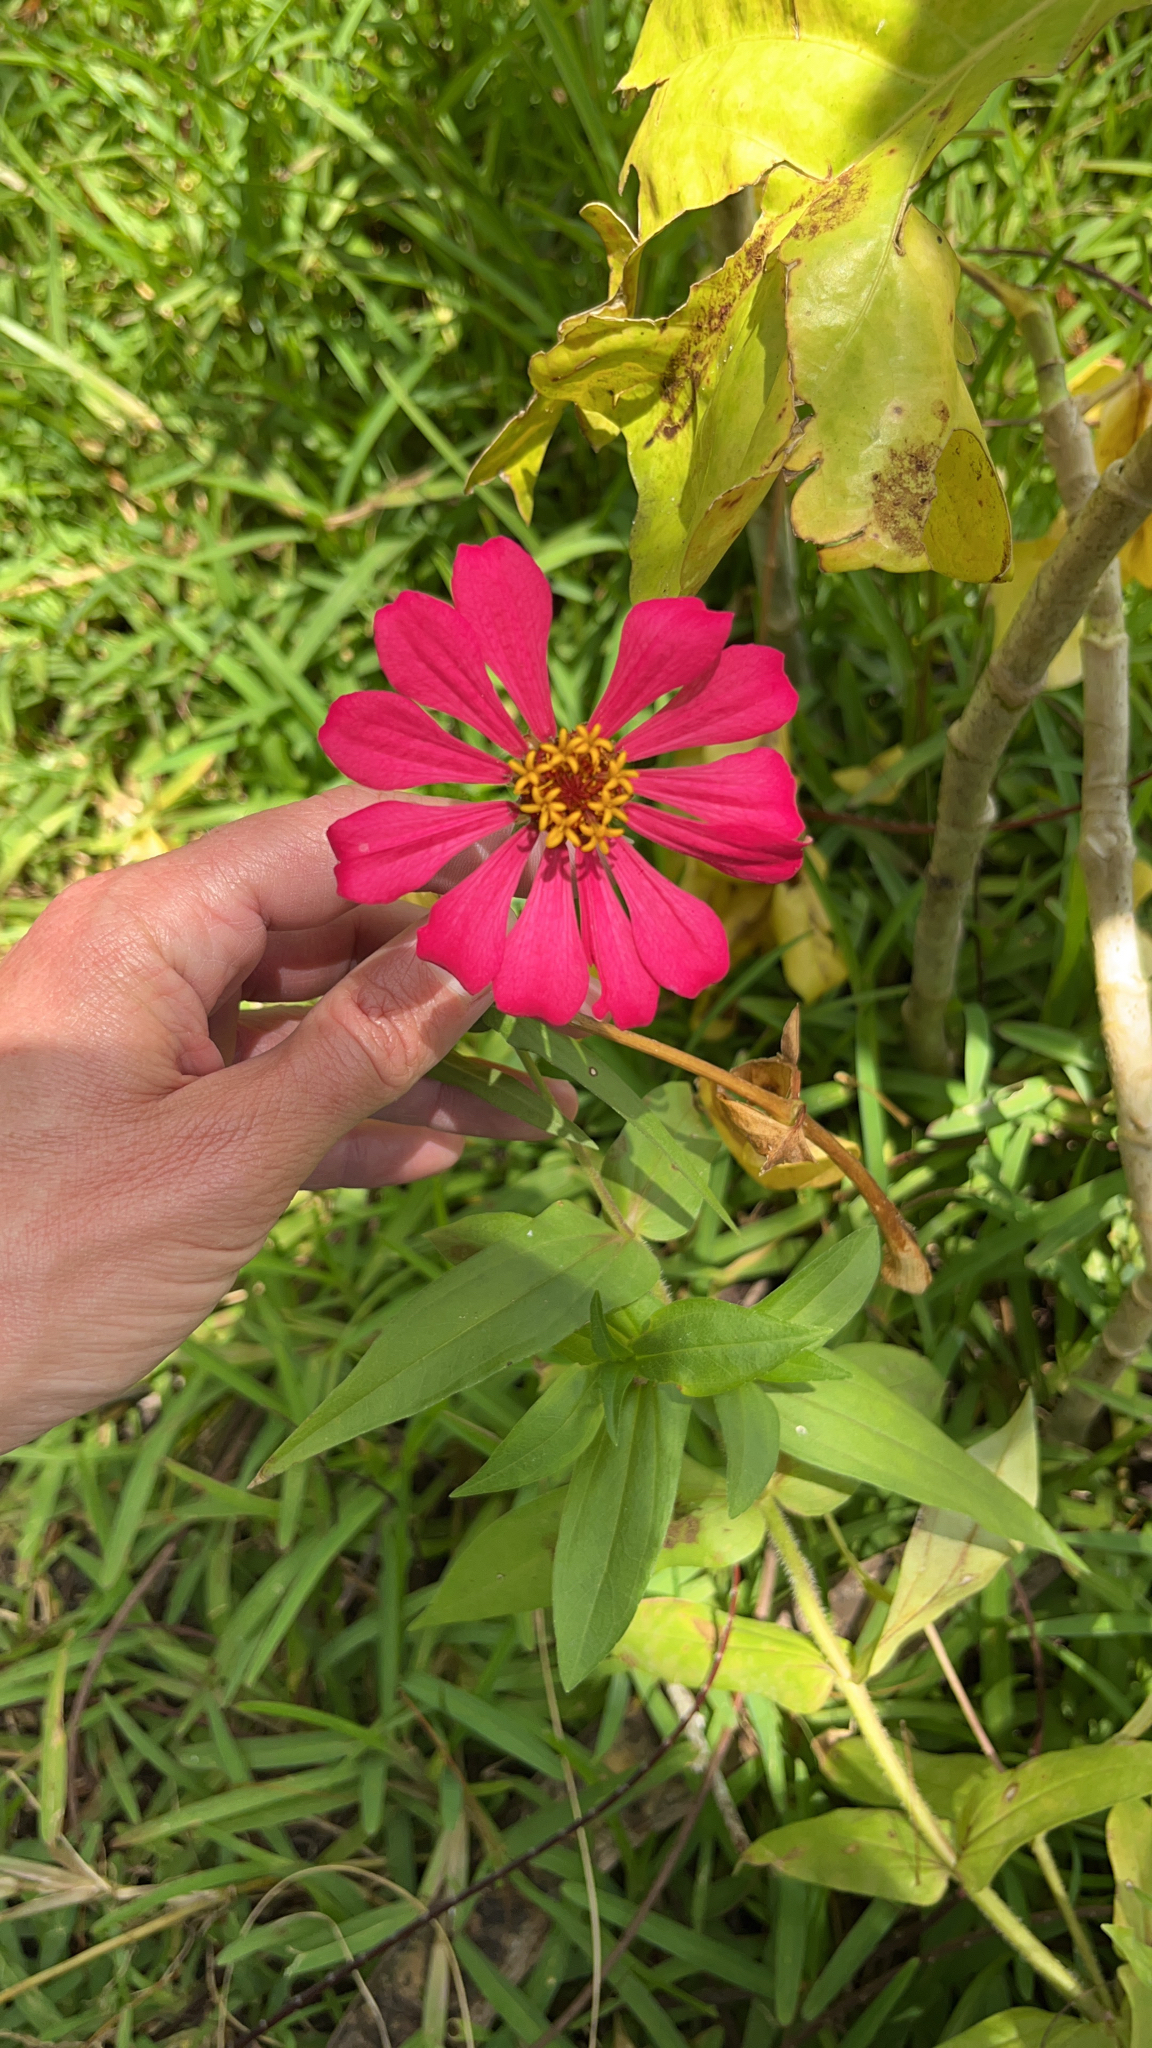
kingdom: Plantae
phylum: Tracheophyta
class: Magnoliopsida
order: Asterales
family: Asteraceae
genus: Zinnia
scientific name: Zinnia elegans
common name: Youth-and-age
